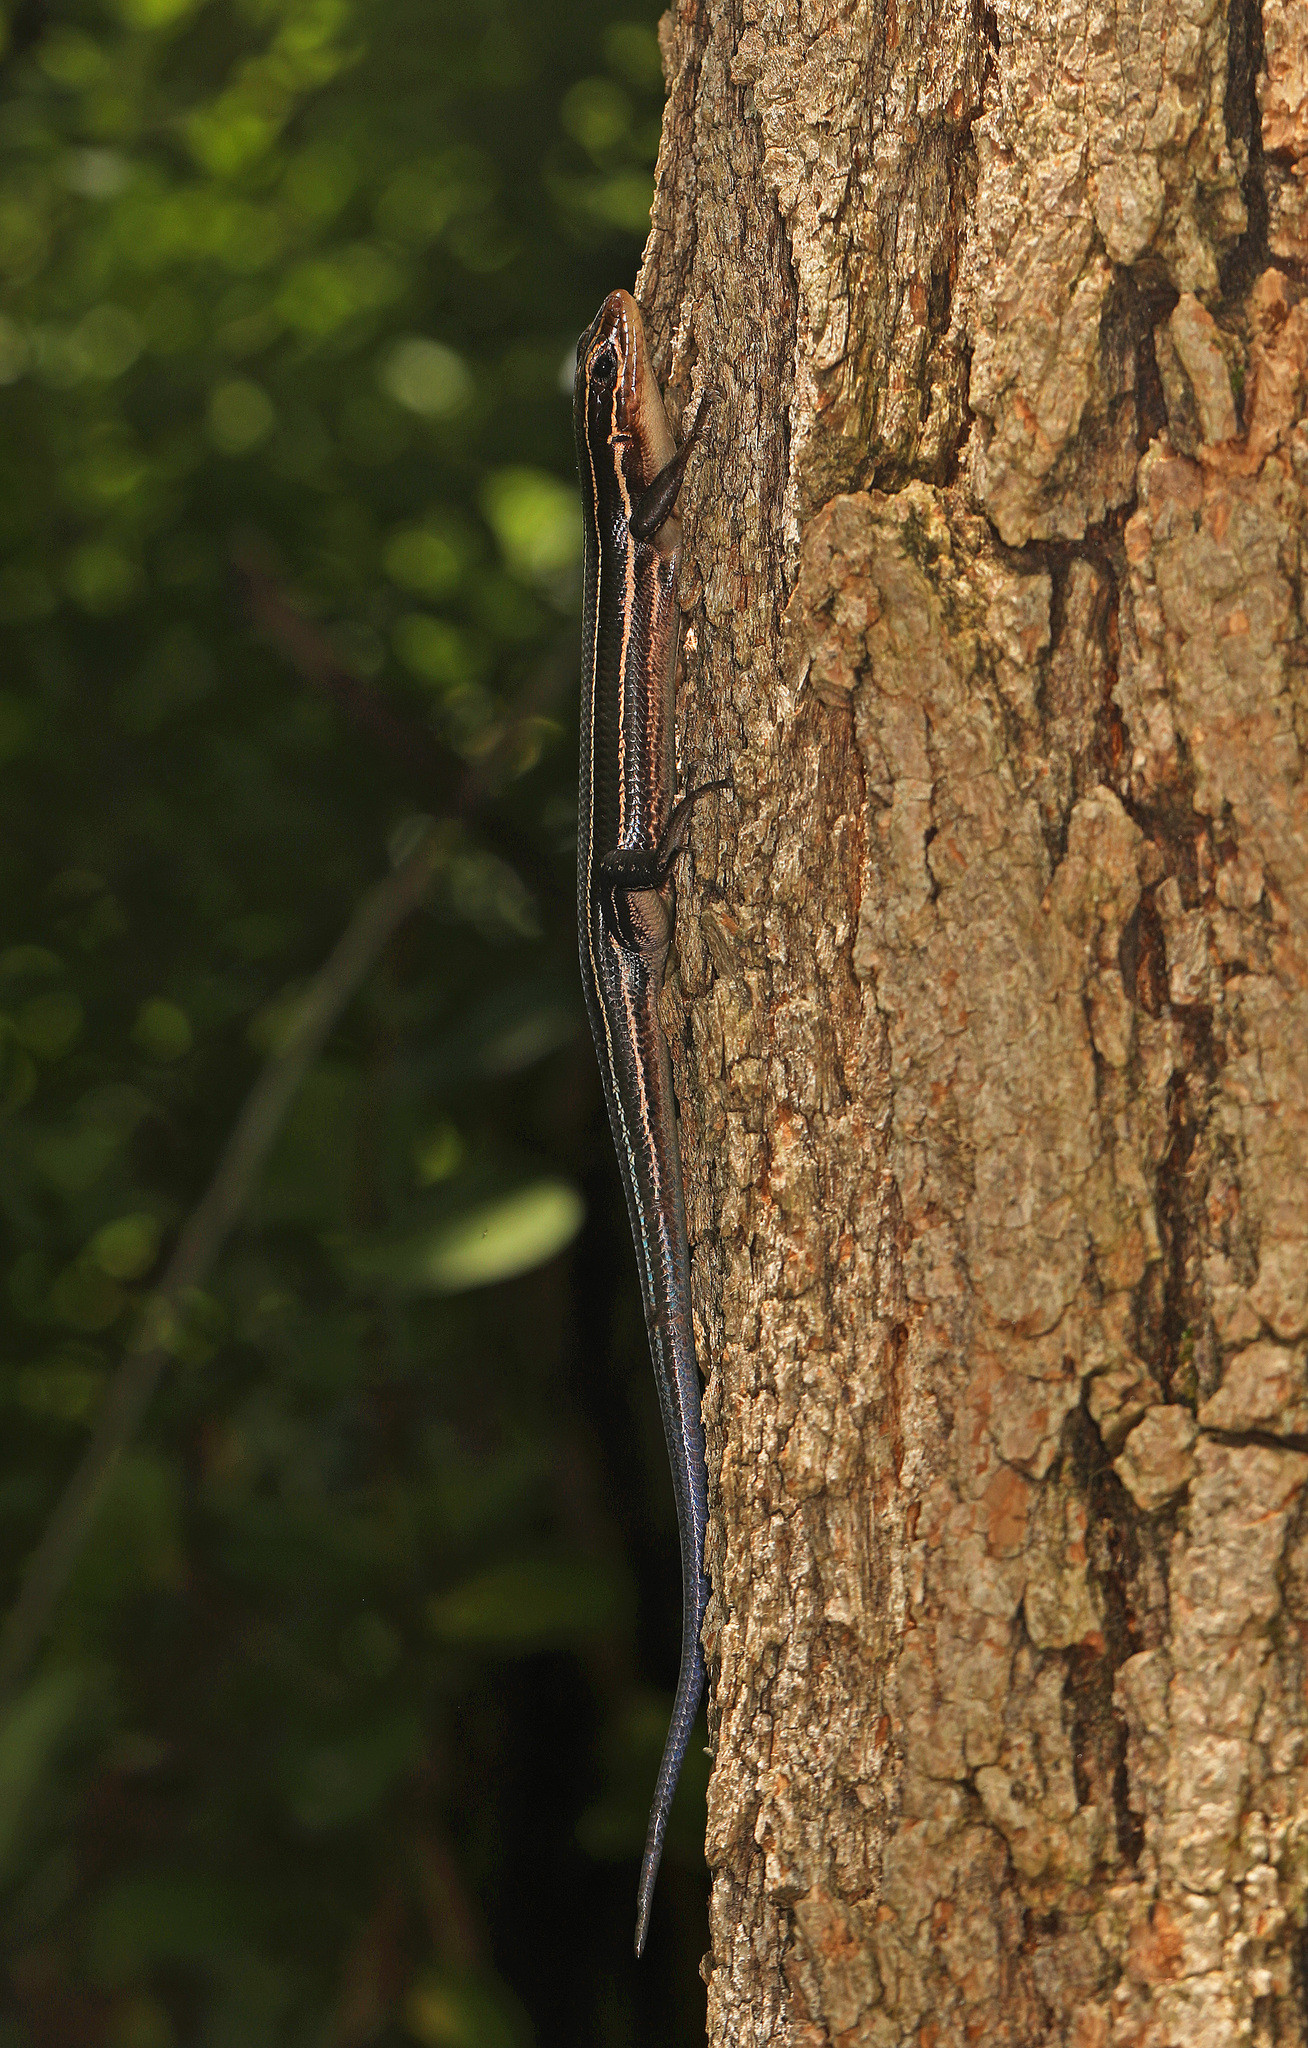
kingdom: Animalia
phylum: Chordata
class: Squamata
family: Scincidae
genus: Plestiodon
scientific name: Plestiodon laticeps
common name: Broadhead skink
